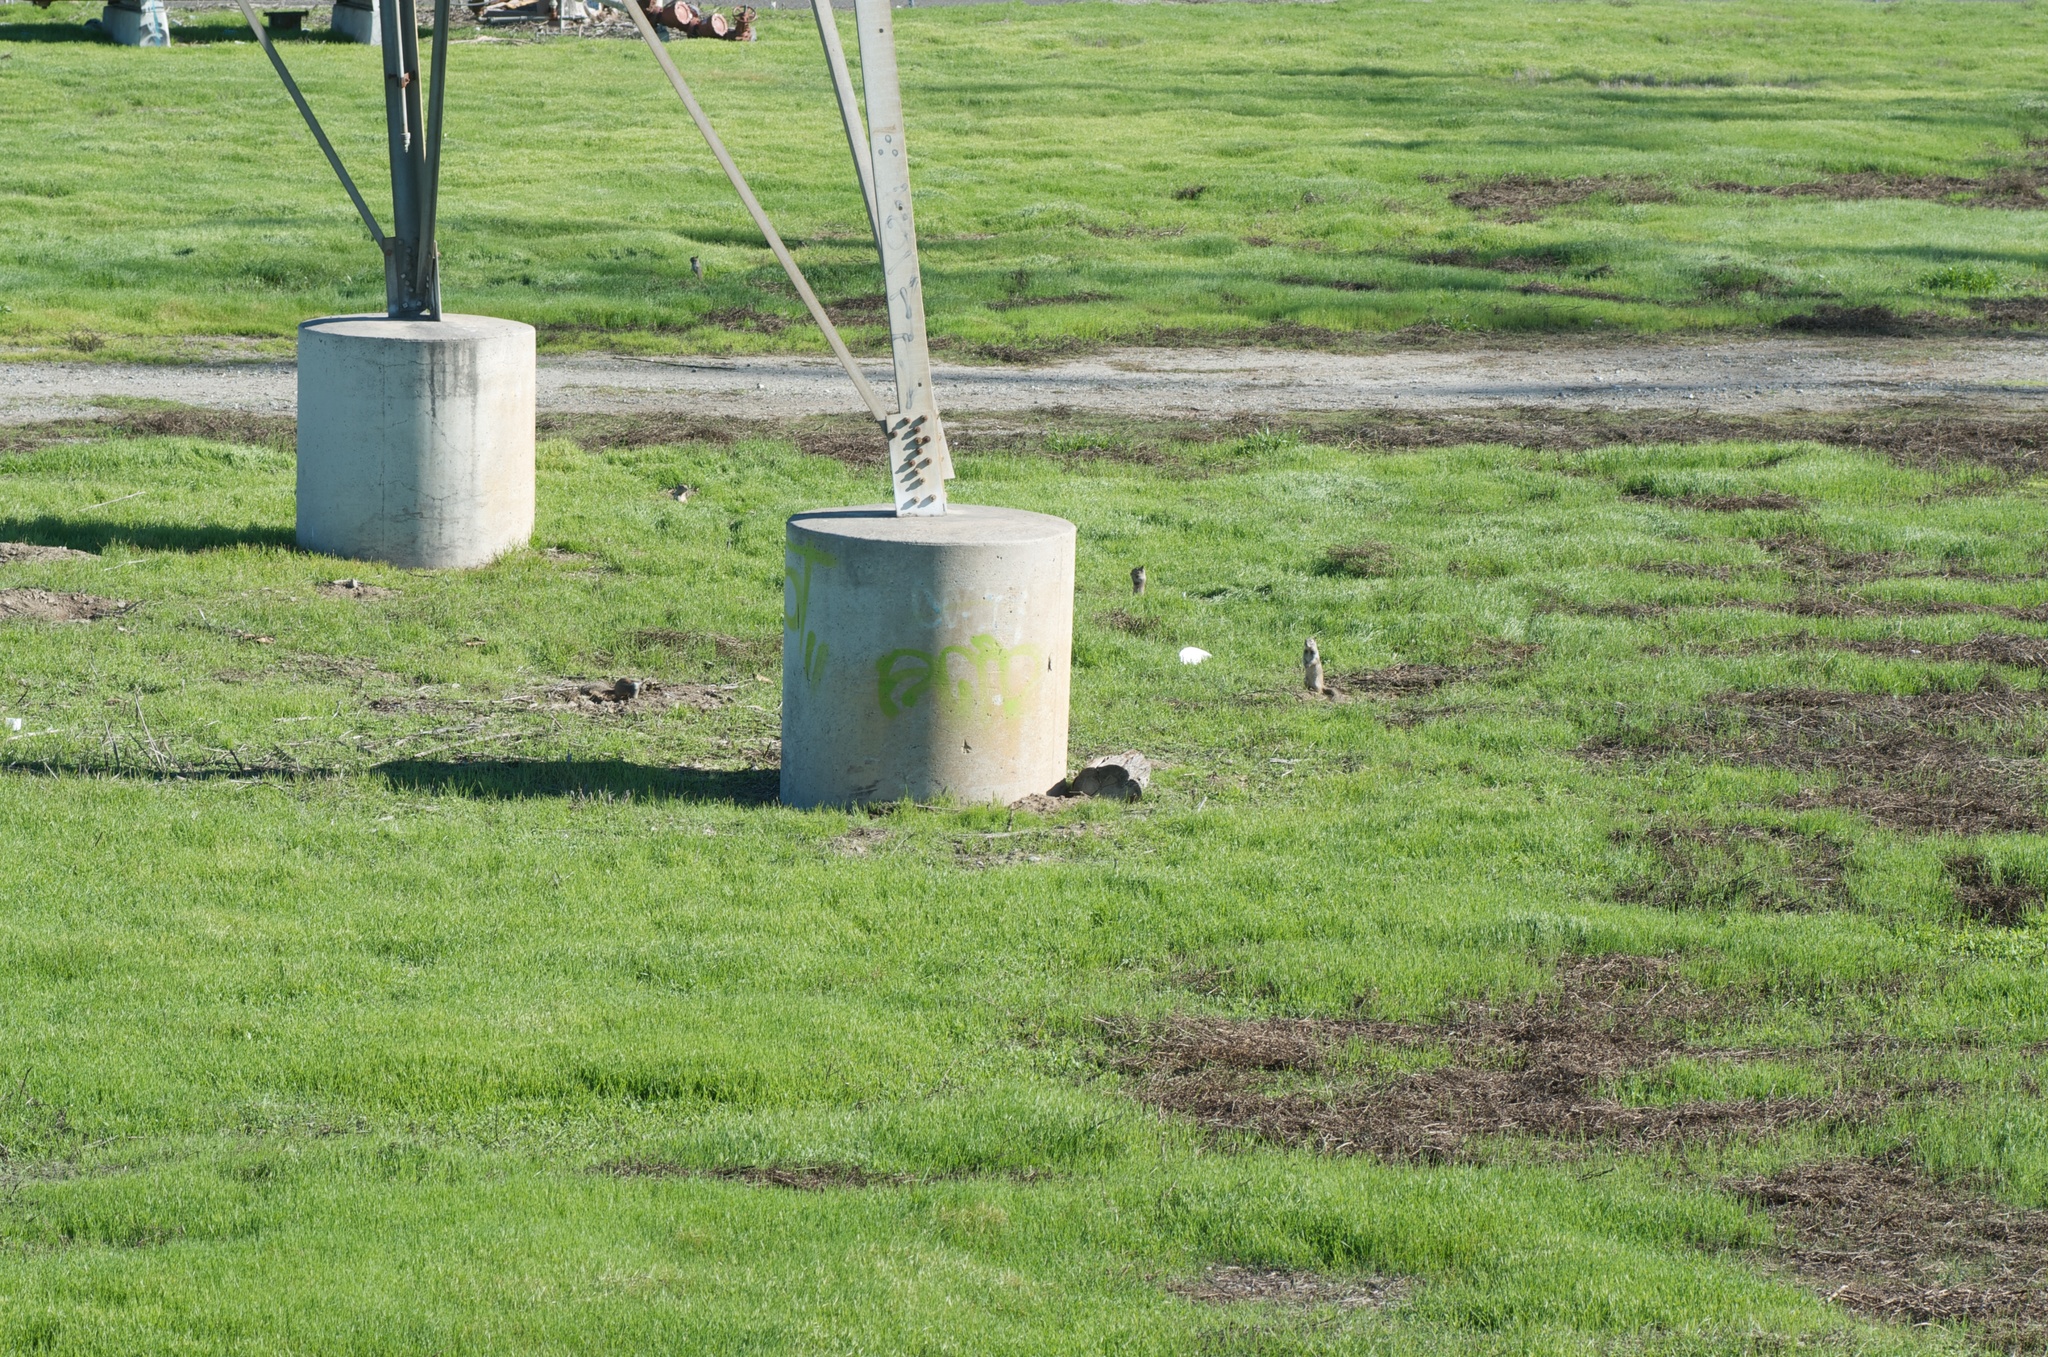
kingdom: Animalia
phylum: Chordata
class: Mammalia
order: Rodentia
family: Sciuridae
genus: Otospermophilus
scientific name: Otospermophilus beecheyi
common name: California ground squirrel
